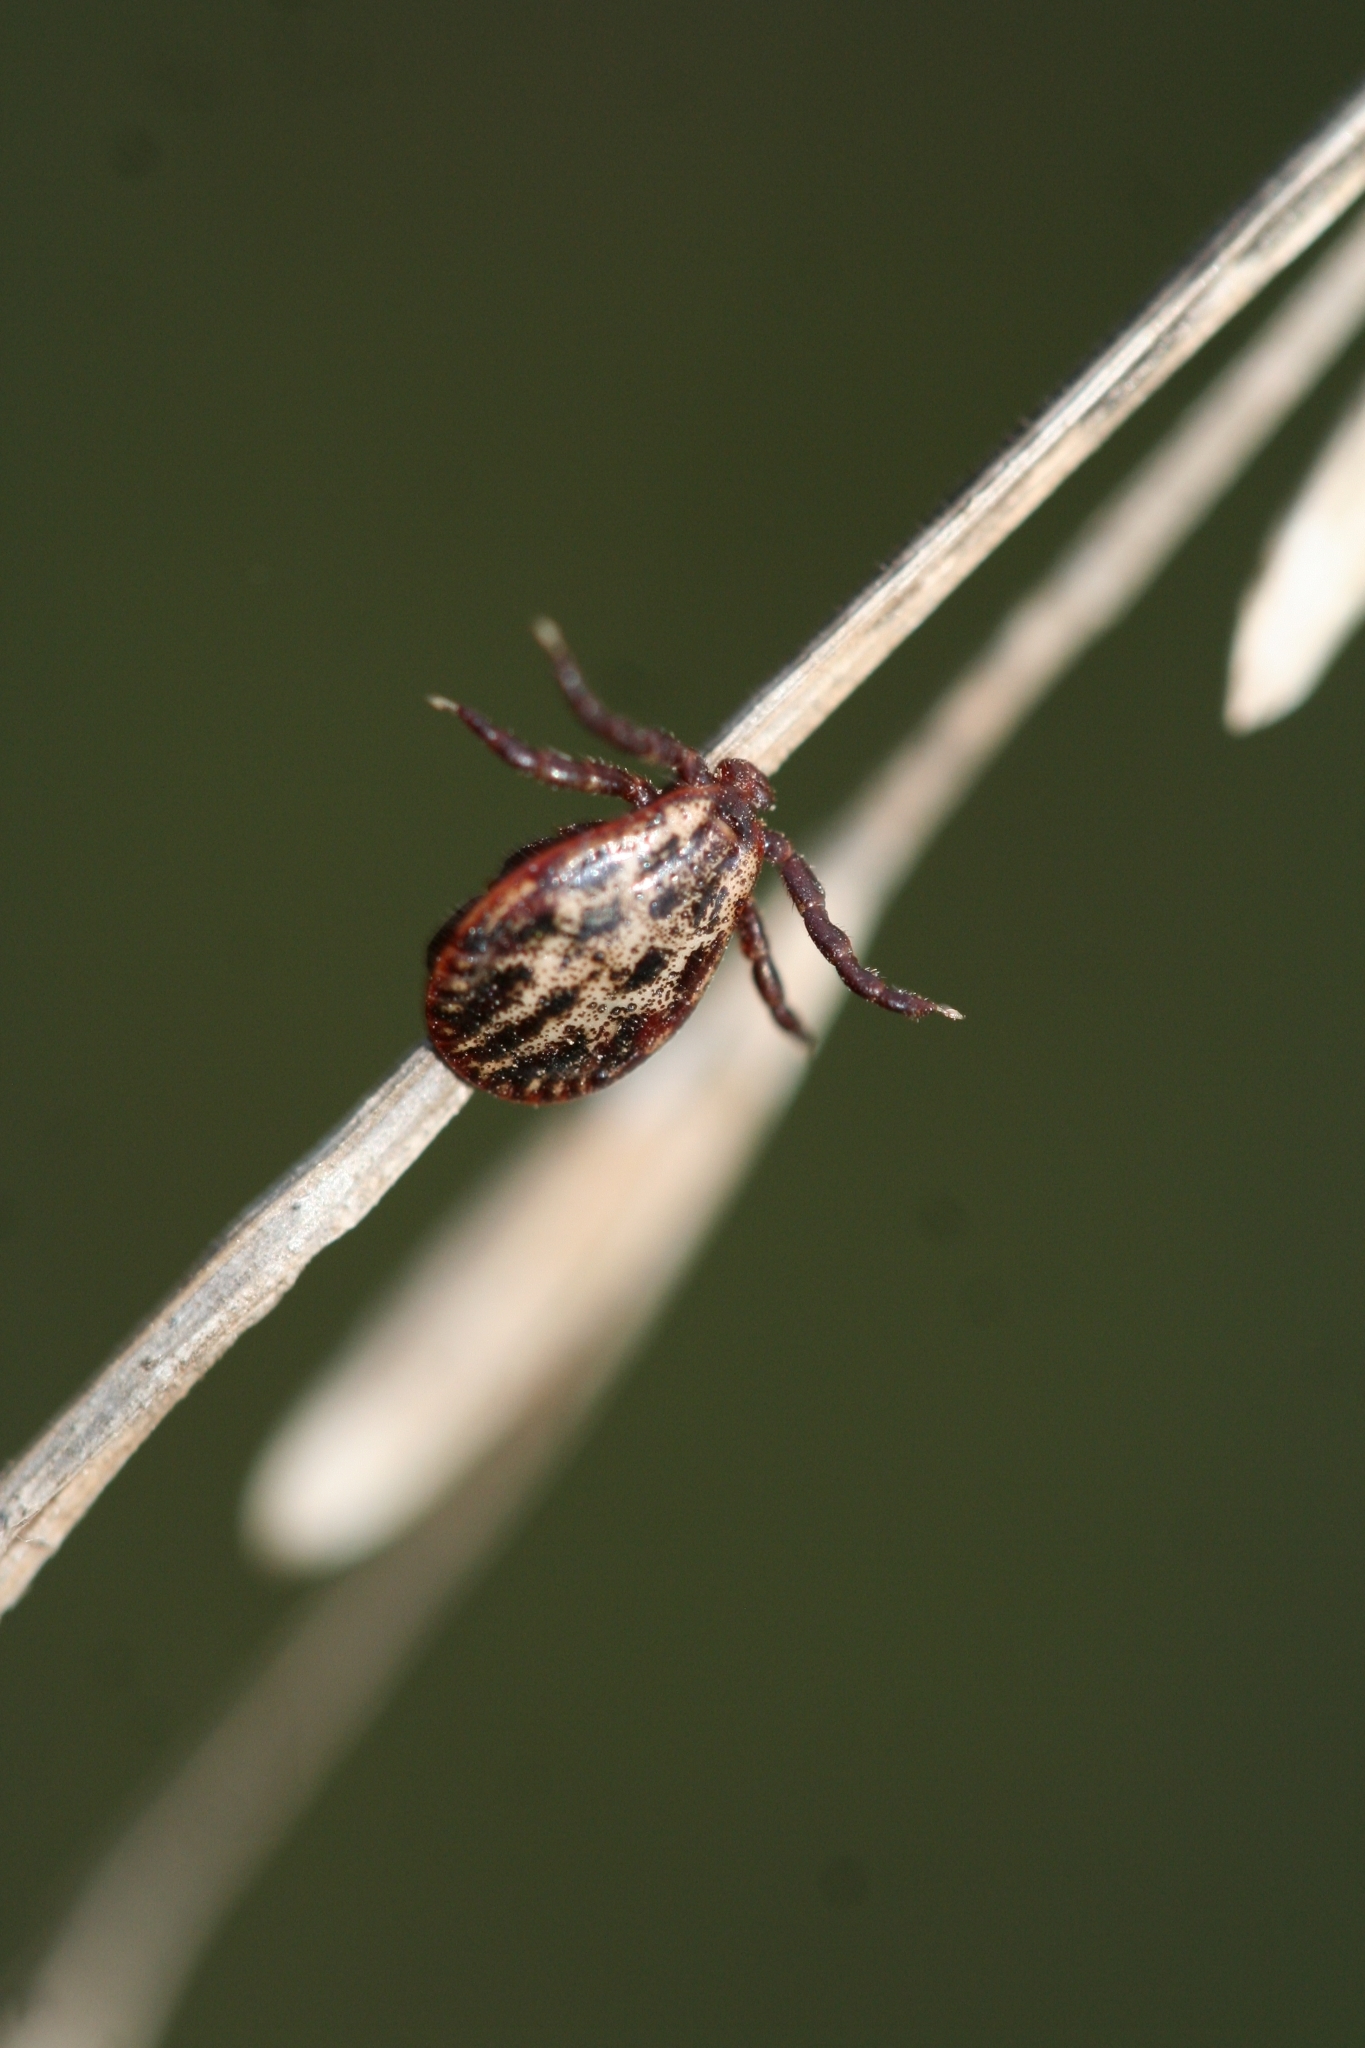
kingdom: Animalia
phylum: Arthropoda
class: Arachnida
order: Ixodida
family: Ixodidae
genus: Dermacentor
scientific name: Dermacentor reticulatus
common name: Ornate cow tick
